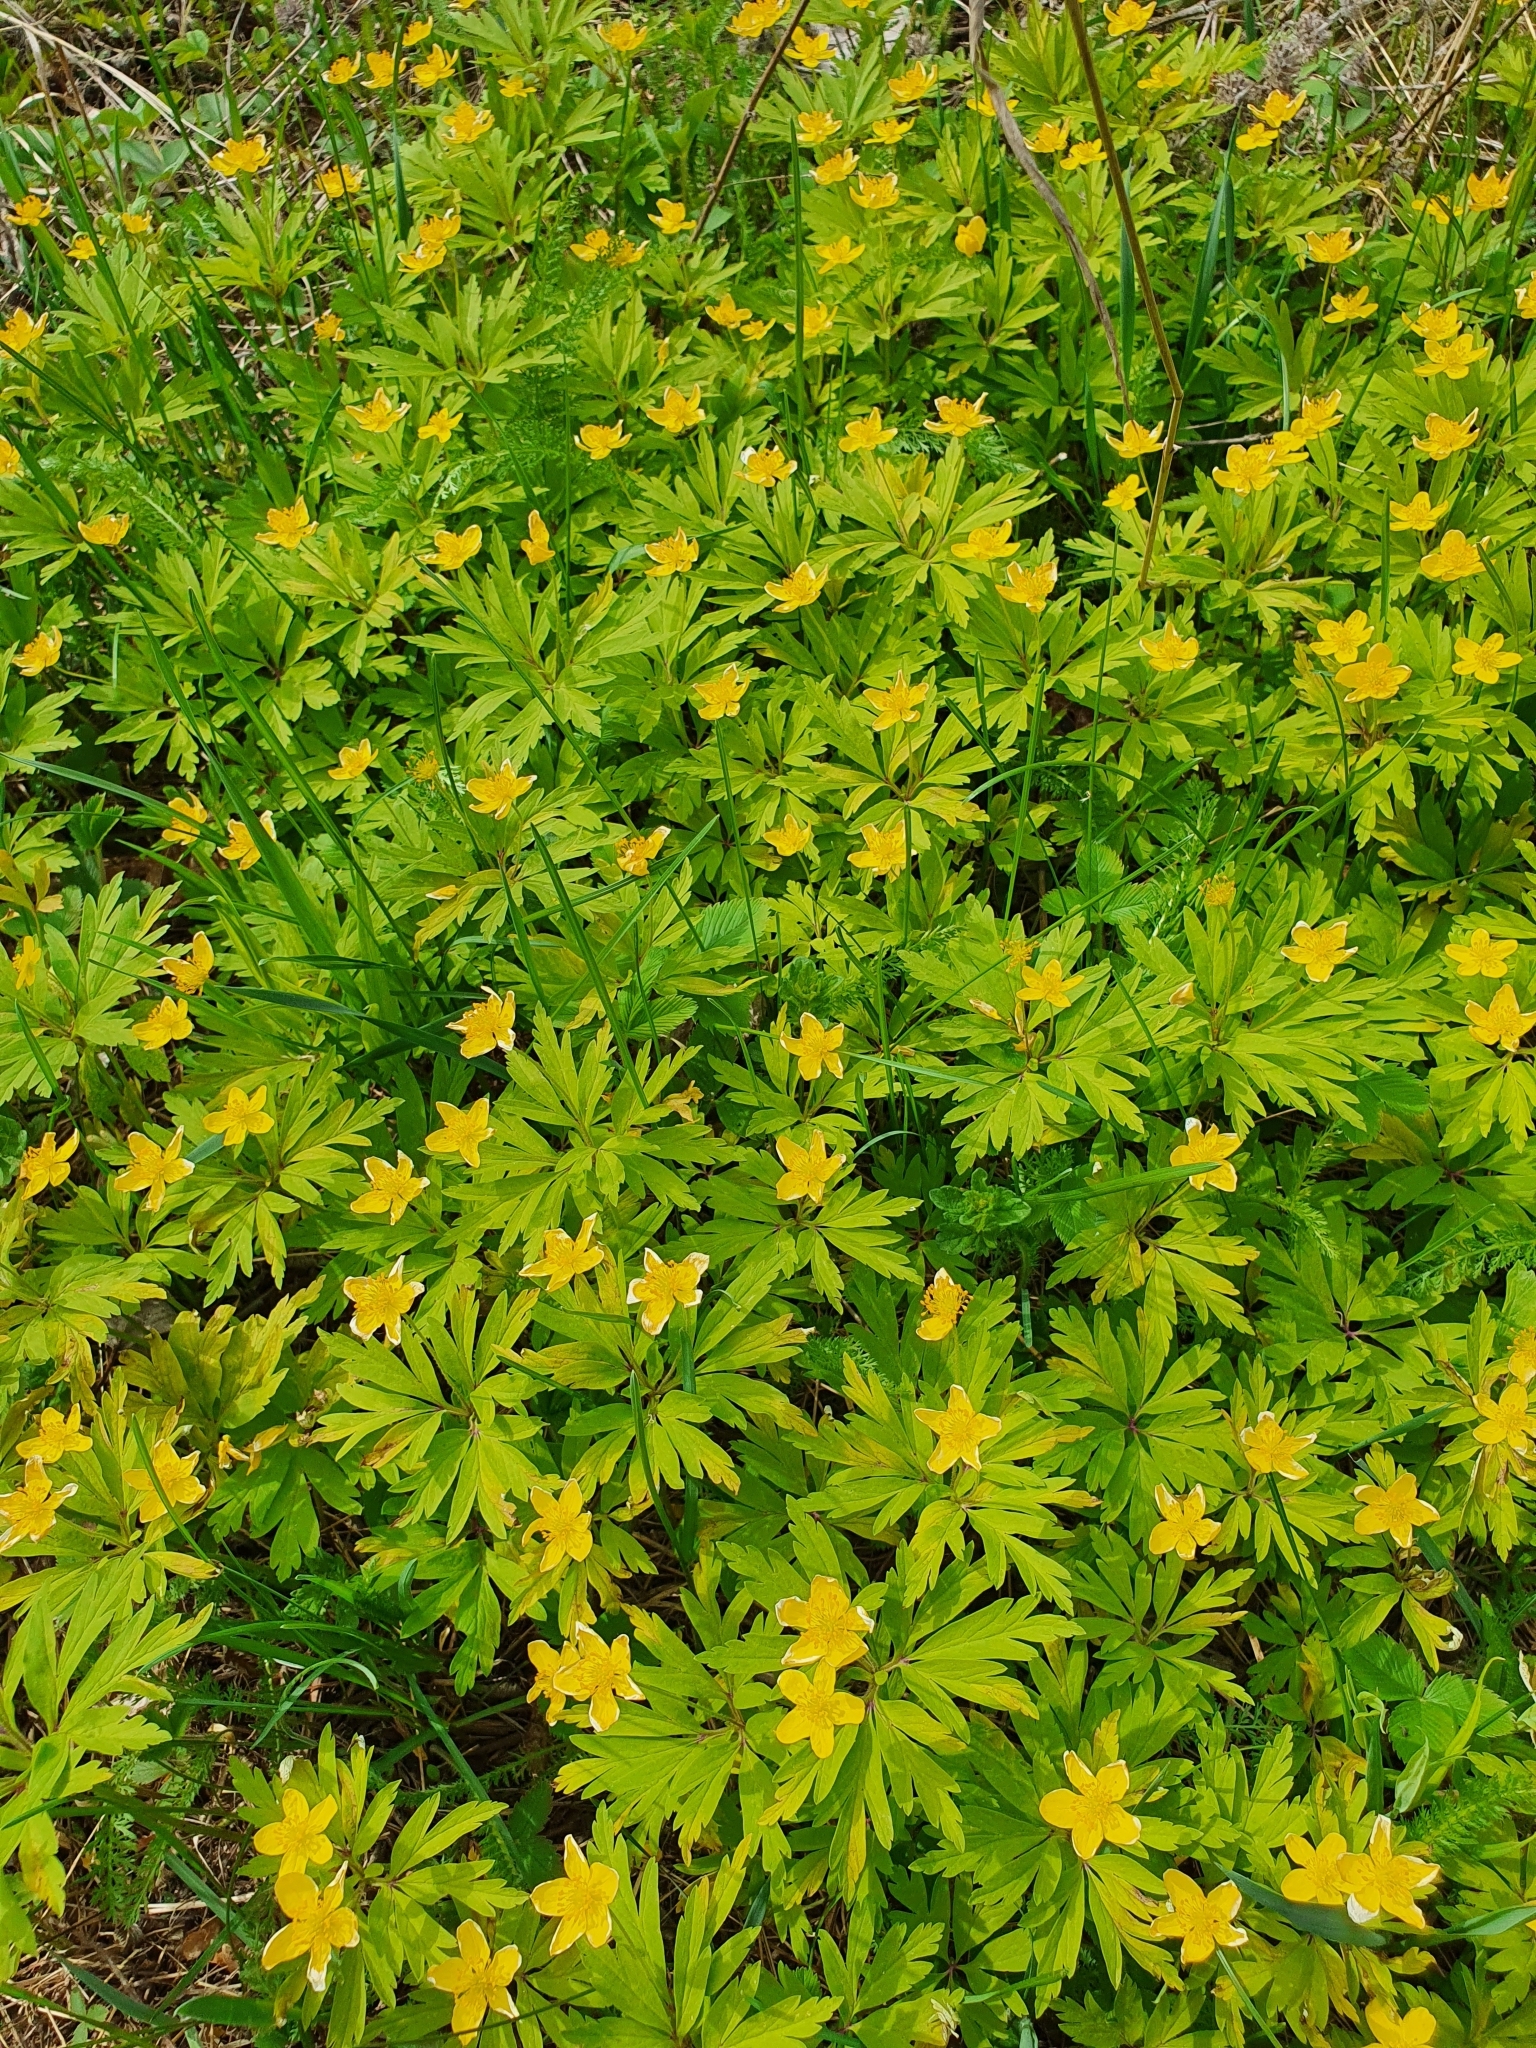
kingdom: Plantae
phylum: Tracheophyta
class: Magnoliopsida
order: Ranunculales
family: Ranunculaceae
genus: Anemone
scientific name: Anemone ranunculoides
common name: Yellow anemone
